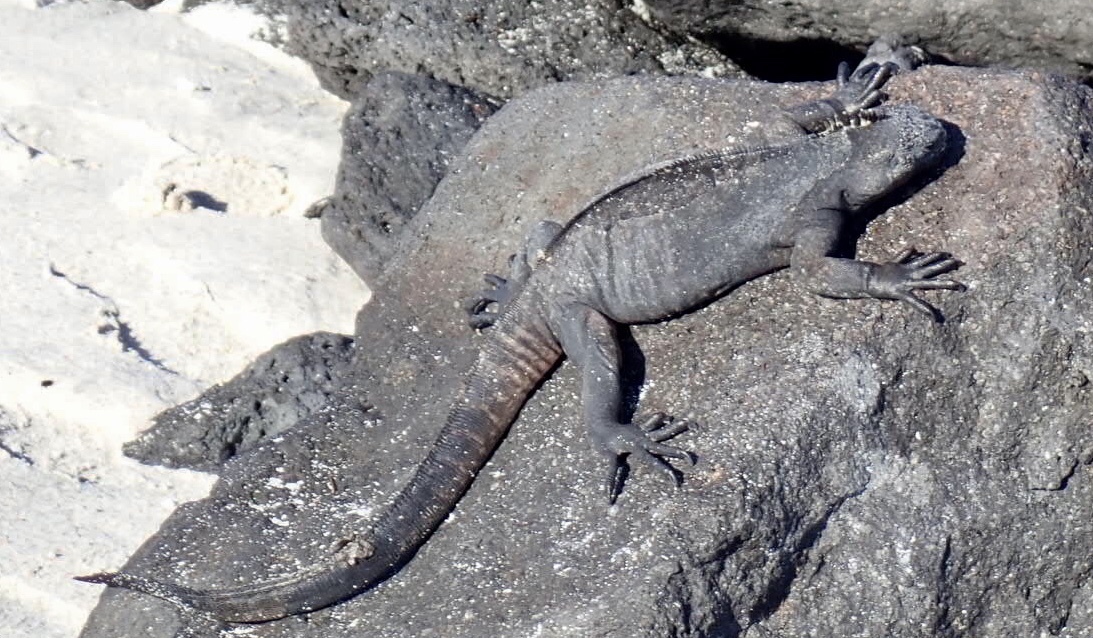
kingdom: Animalia
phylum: Chordata
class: Squamata
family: Iguanidae
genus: Amblyrhynchus
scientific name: Amblyrhynchus cristatus
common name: Marine iguana
